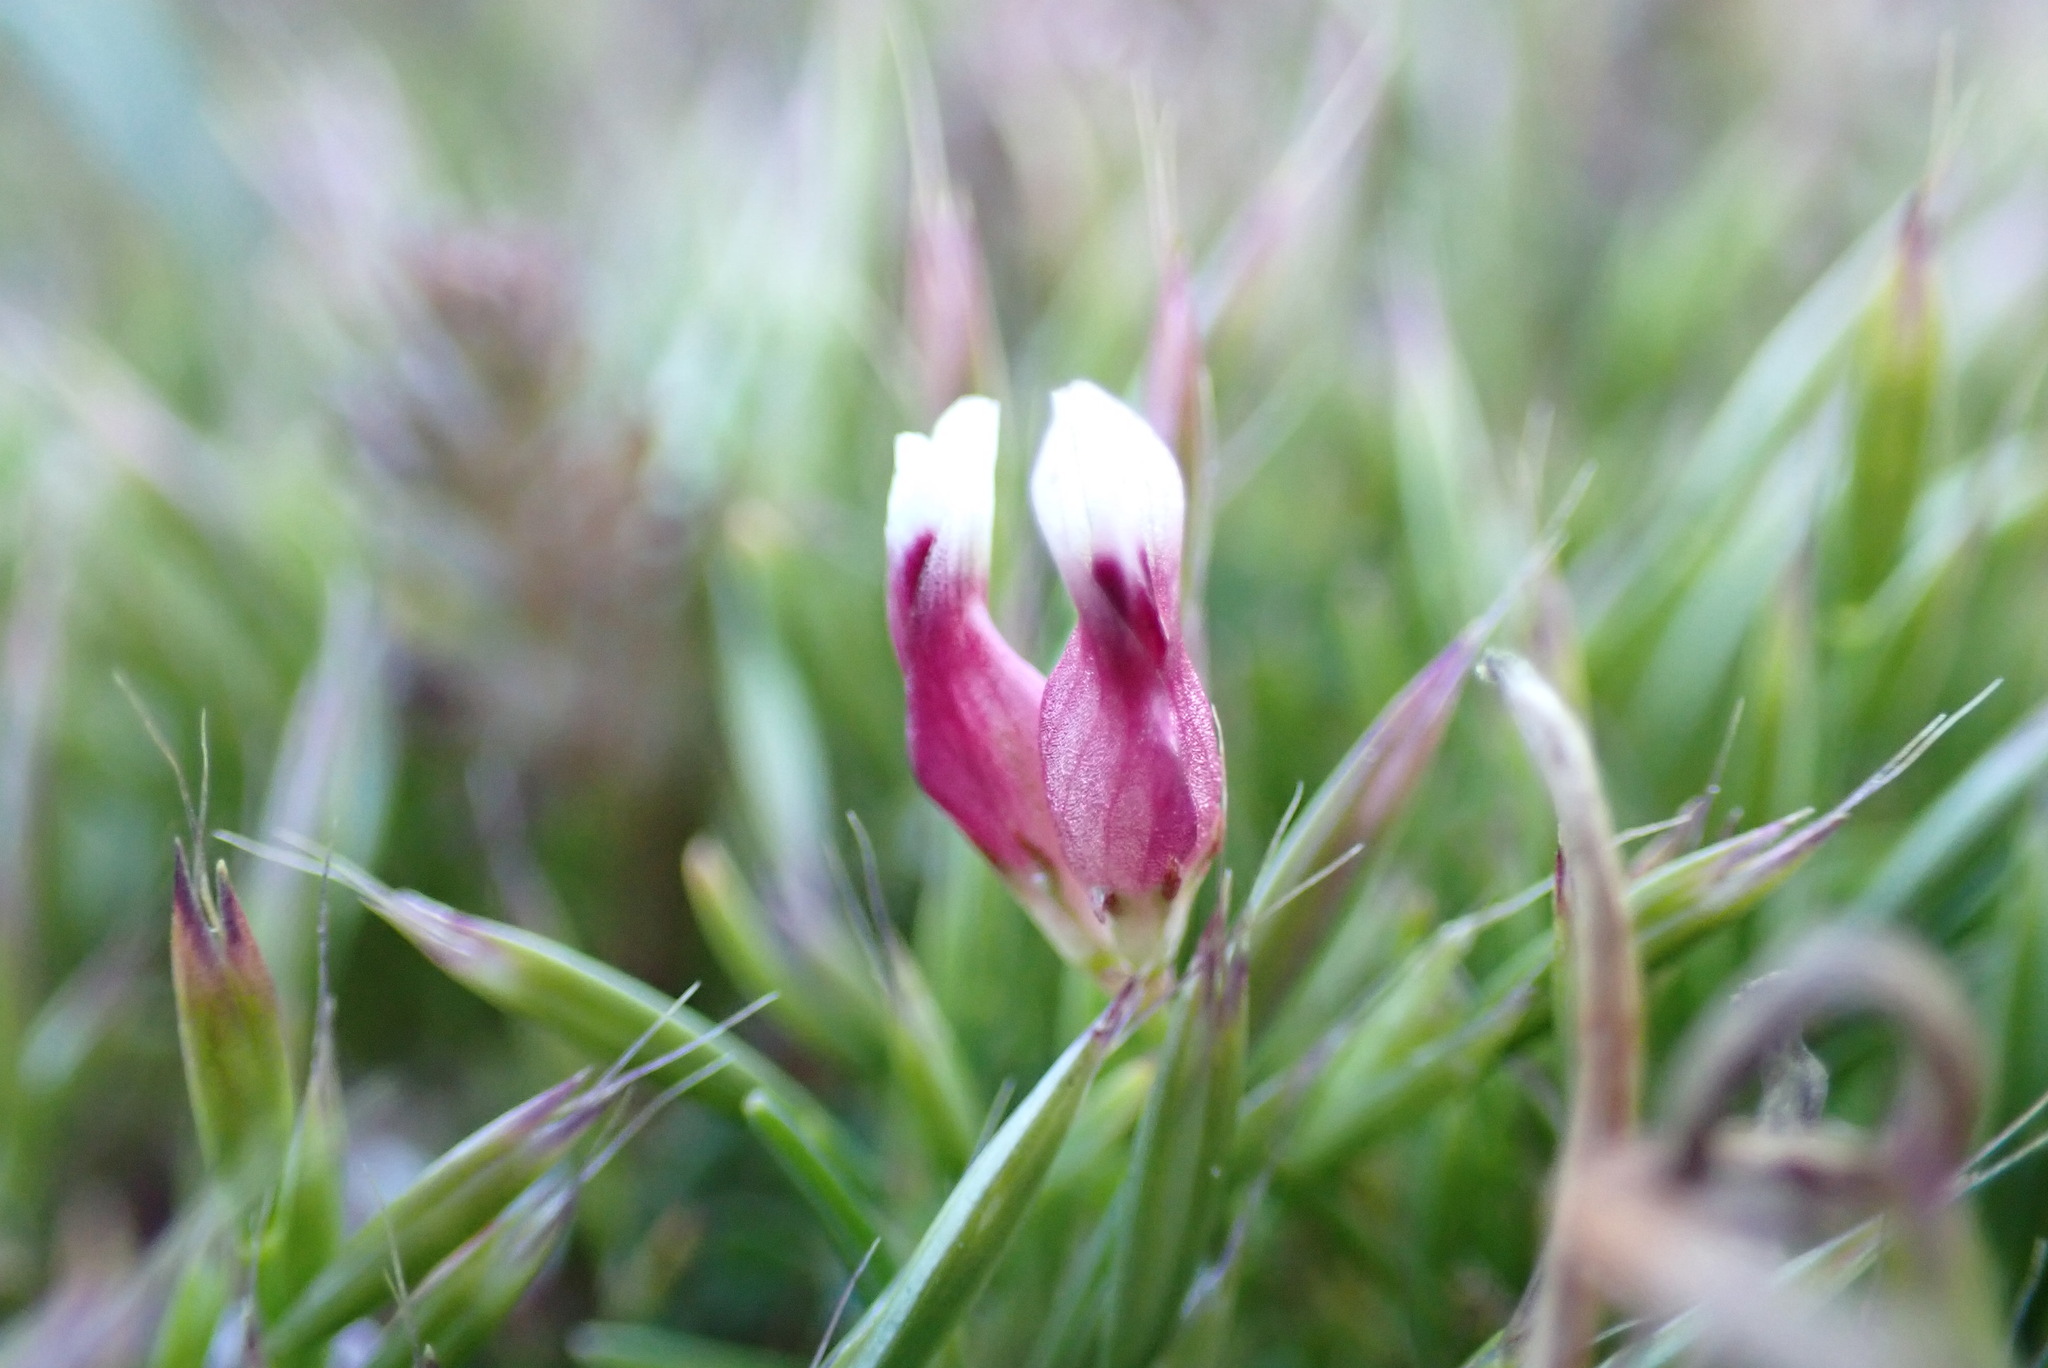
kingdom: Plantae
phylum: Tracheophyta
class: Magnoliopsida
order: Fabales
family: Fabaceae
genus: Trifolium
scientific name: Trifolium depauperatum
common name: Poverty clover
